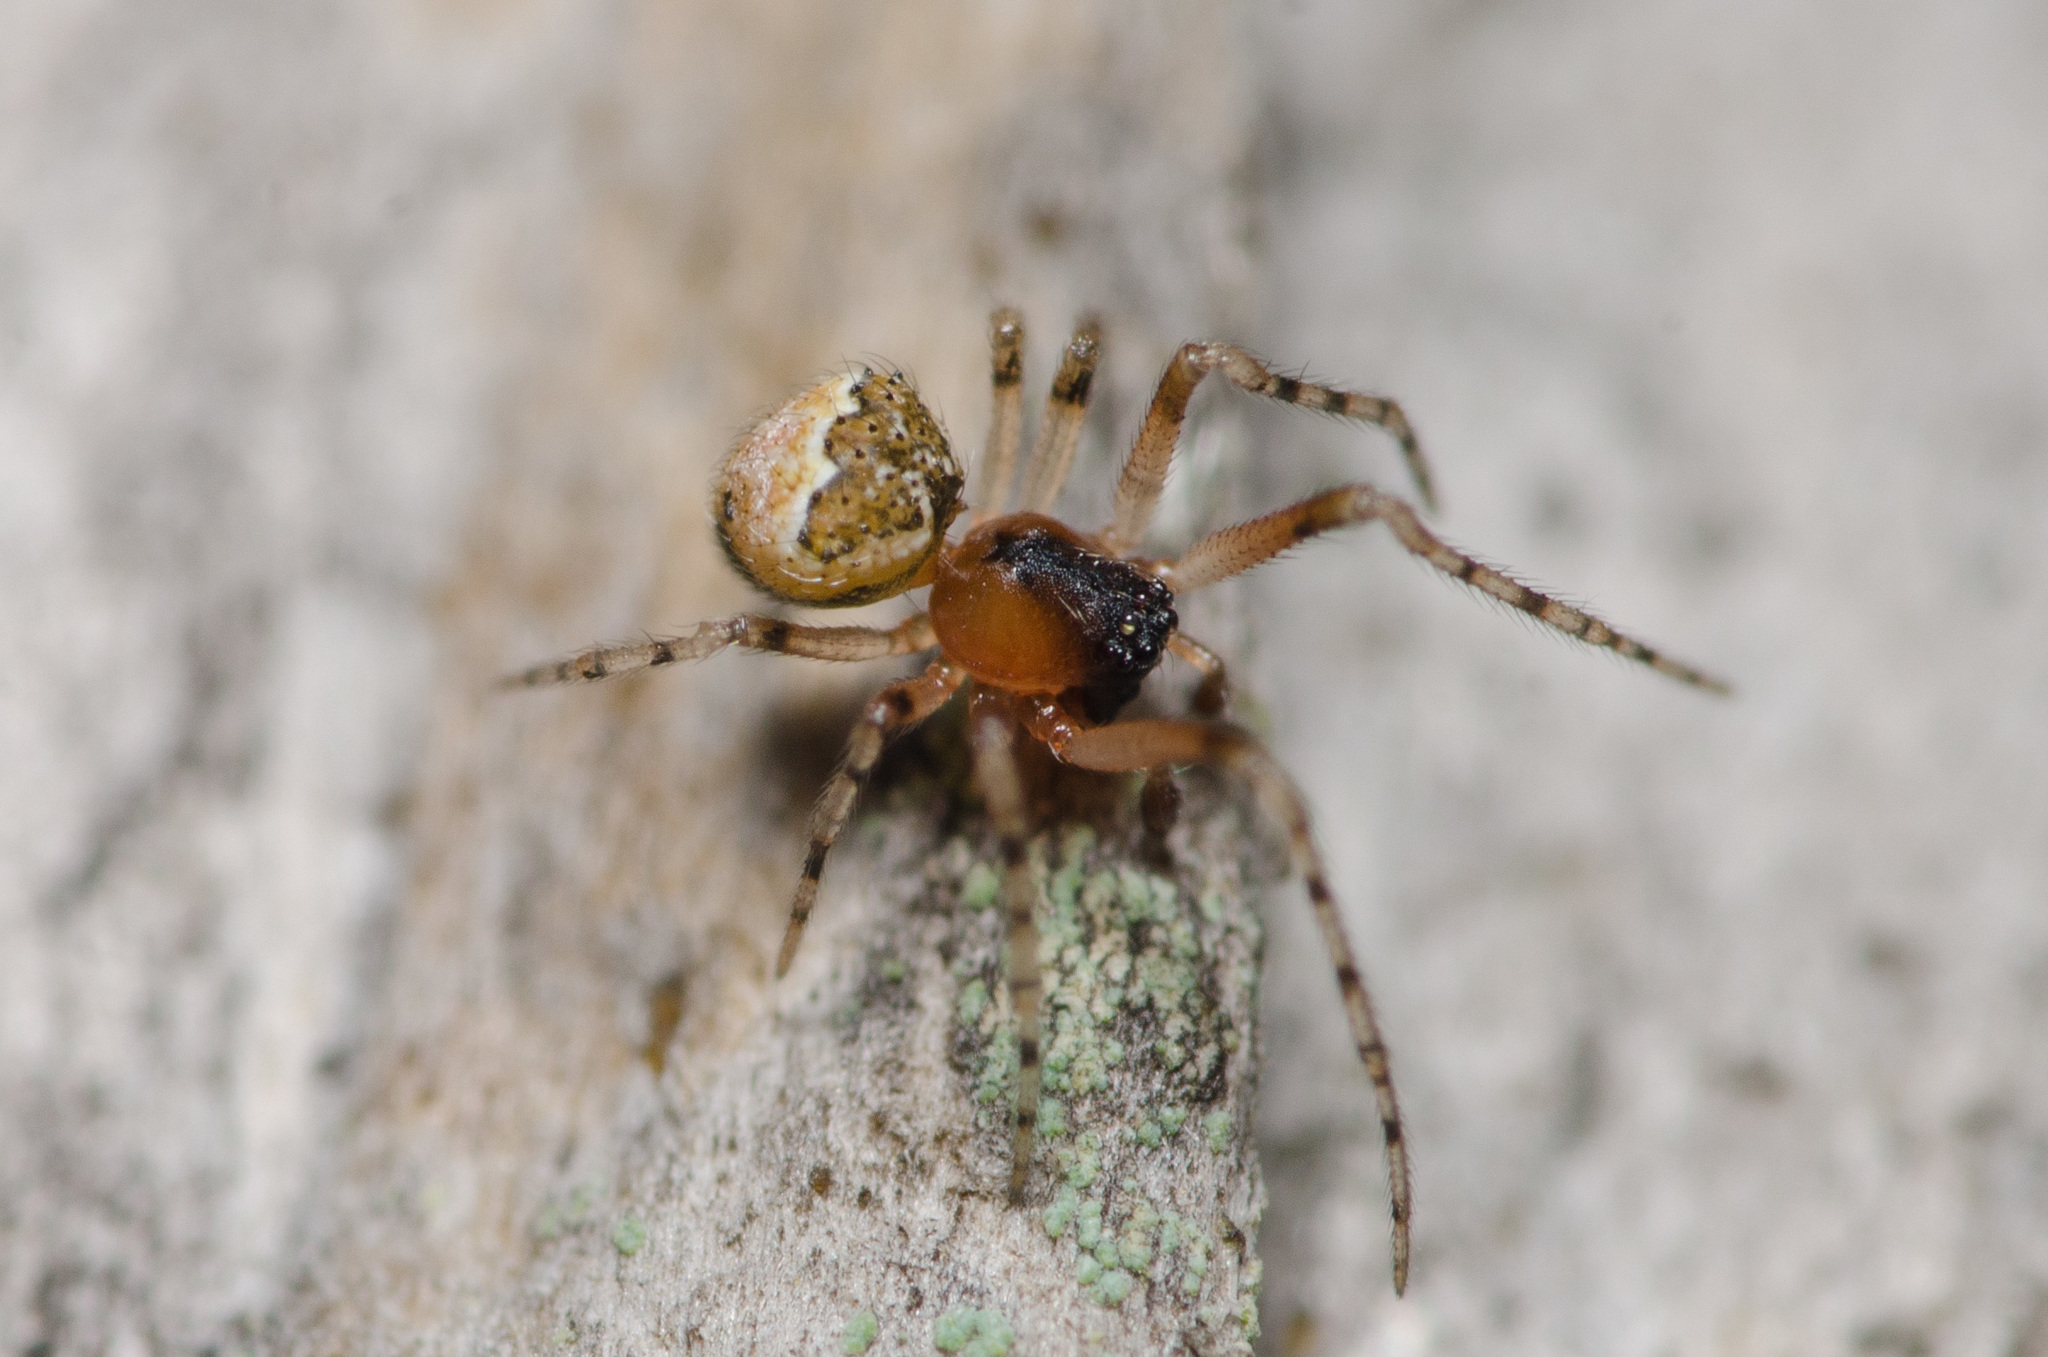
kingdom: Animalia
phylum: Arthropoda
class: Arachnida
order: Araneae
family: Theridiidae
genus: Wamba
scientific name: Wamba crispulus
